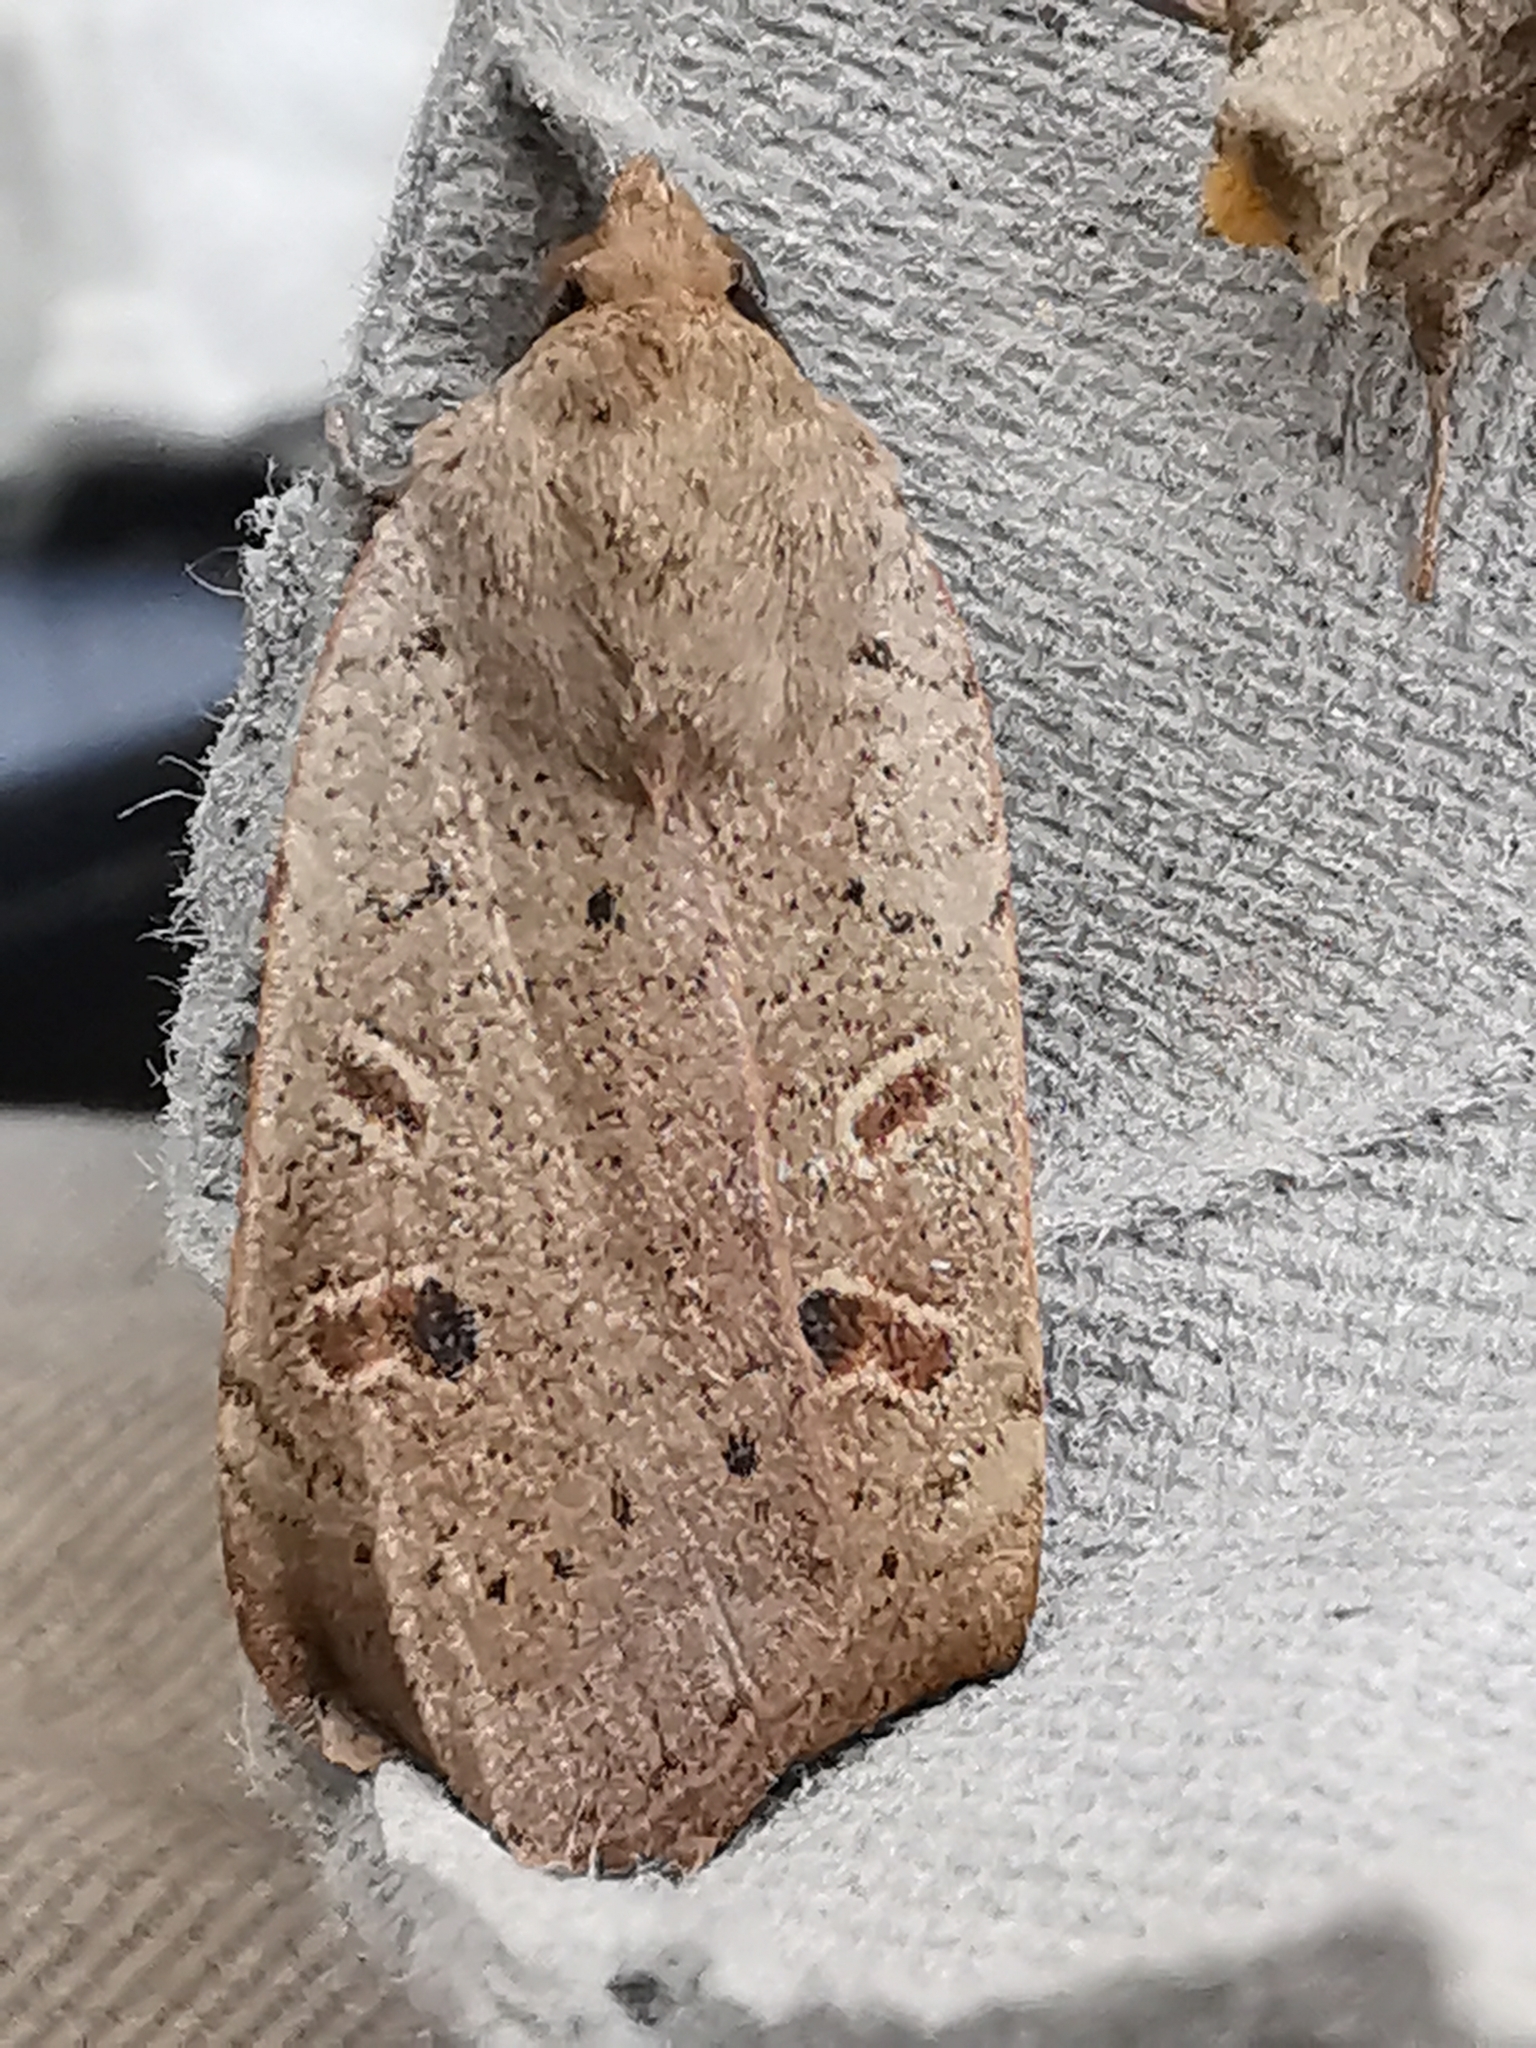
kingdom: Animalia
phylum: Arthropoda
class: Insecta
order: Lepidoptera
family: Noctuidae
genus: Noctua
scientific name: Noctua comes
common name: Lesser yellow underwing
